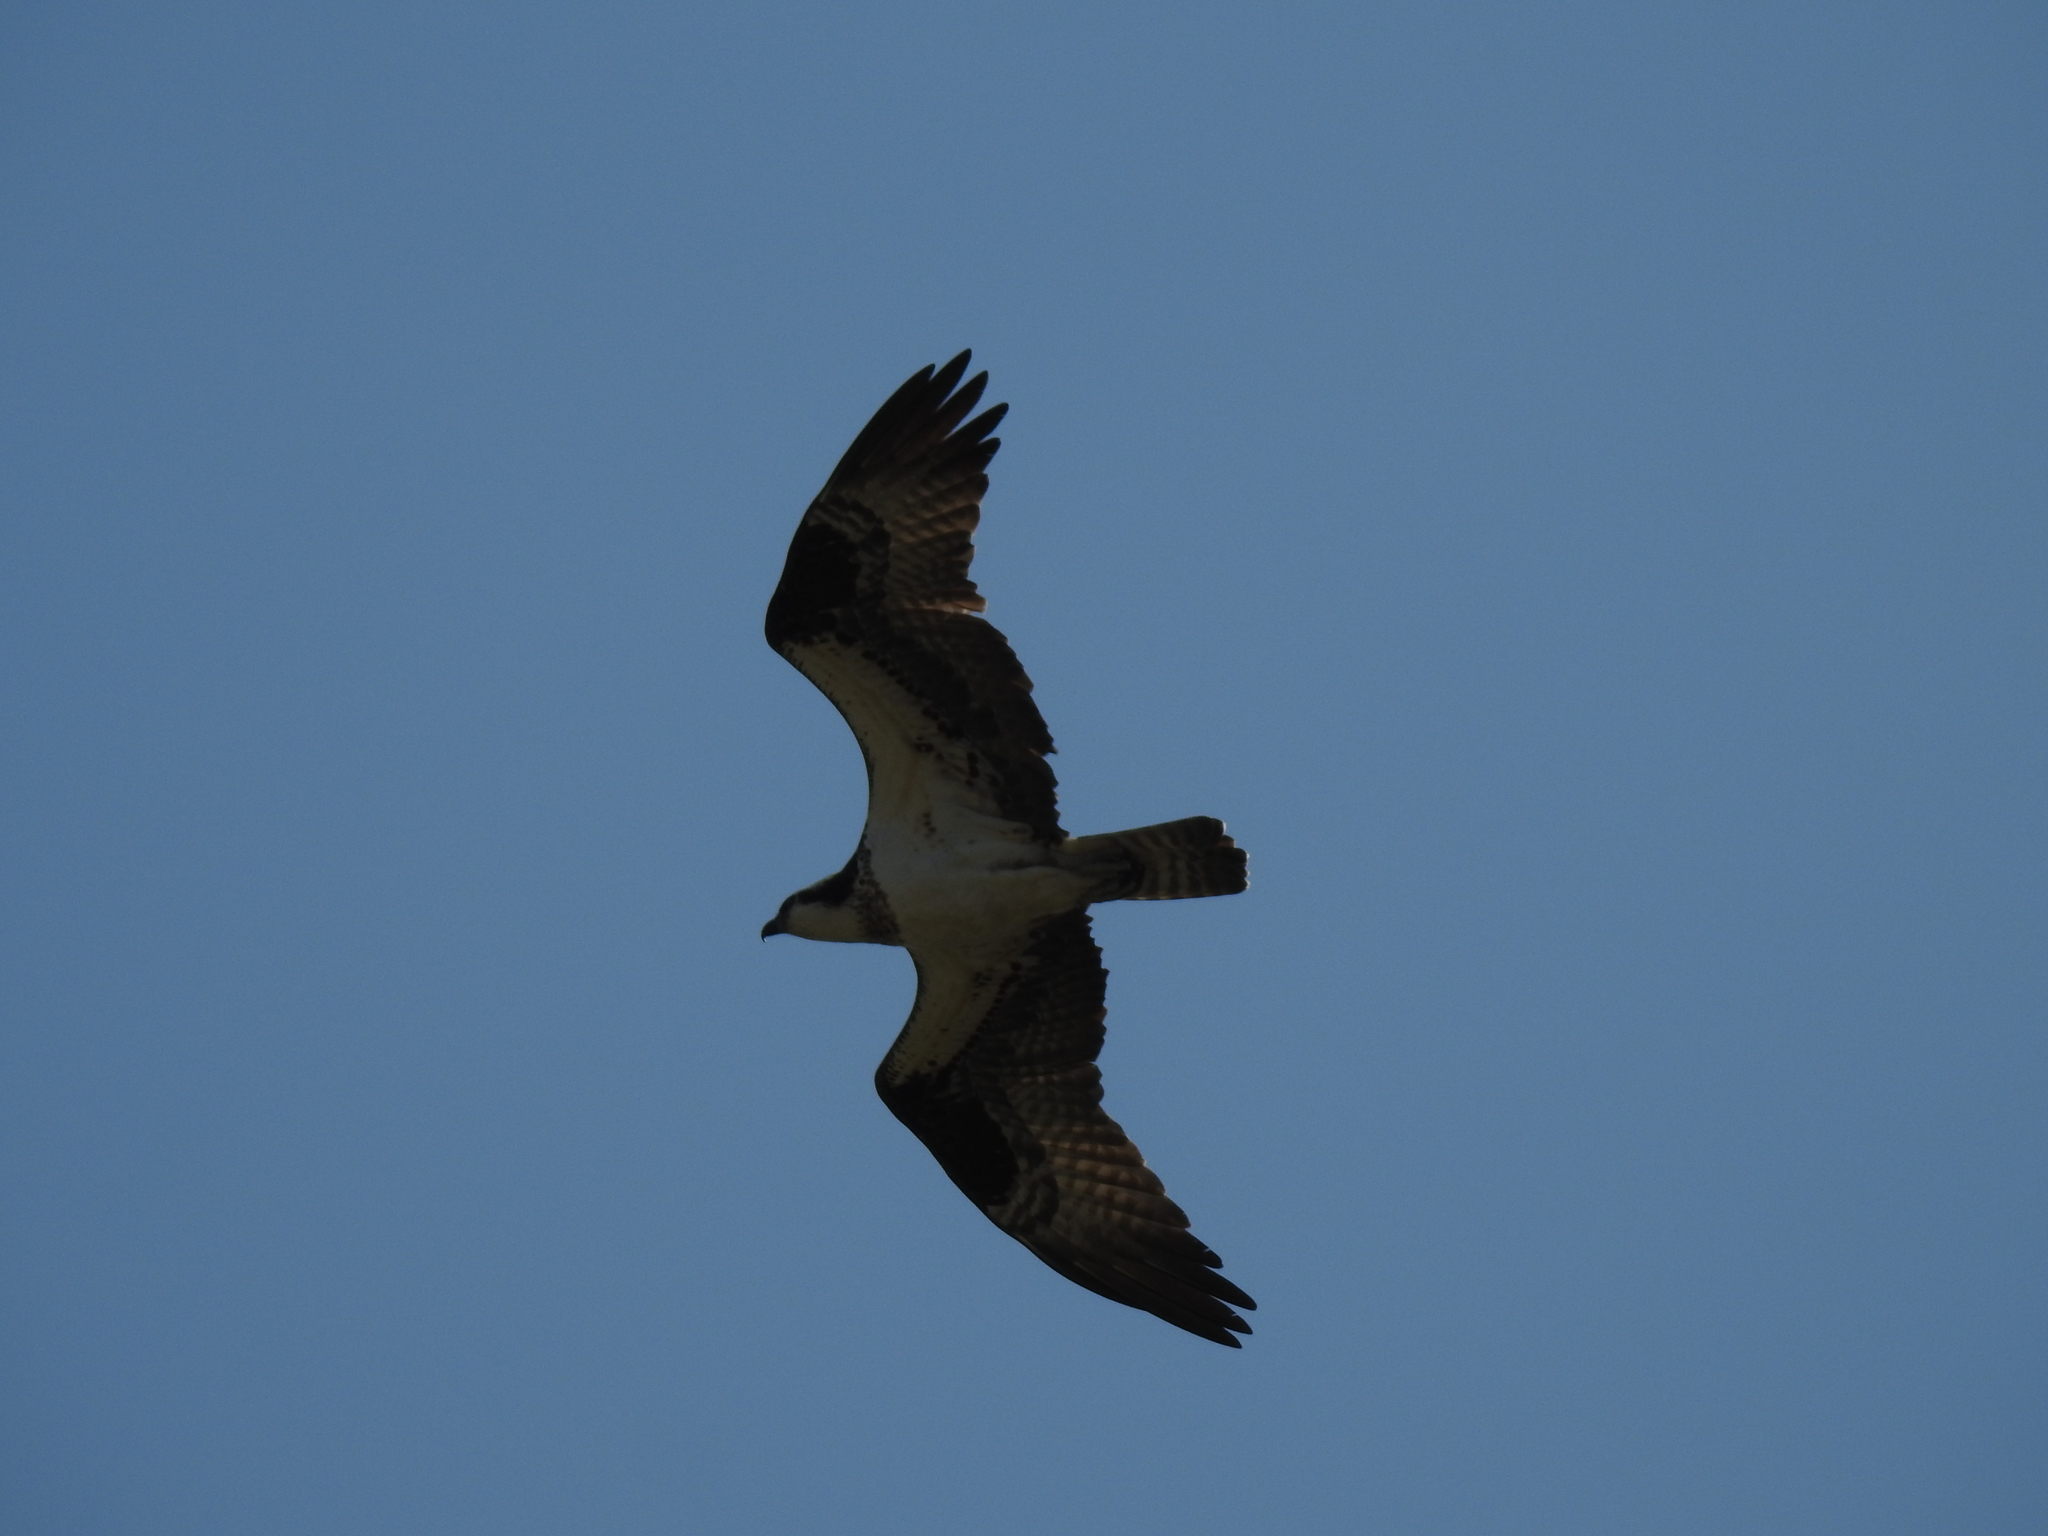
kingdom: Animalia
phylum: Chordata
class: Aves
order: Accipitriformes
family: Pandionidae
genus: Pandion
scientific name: Pandion haliaetus
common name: Osprey
